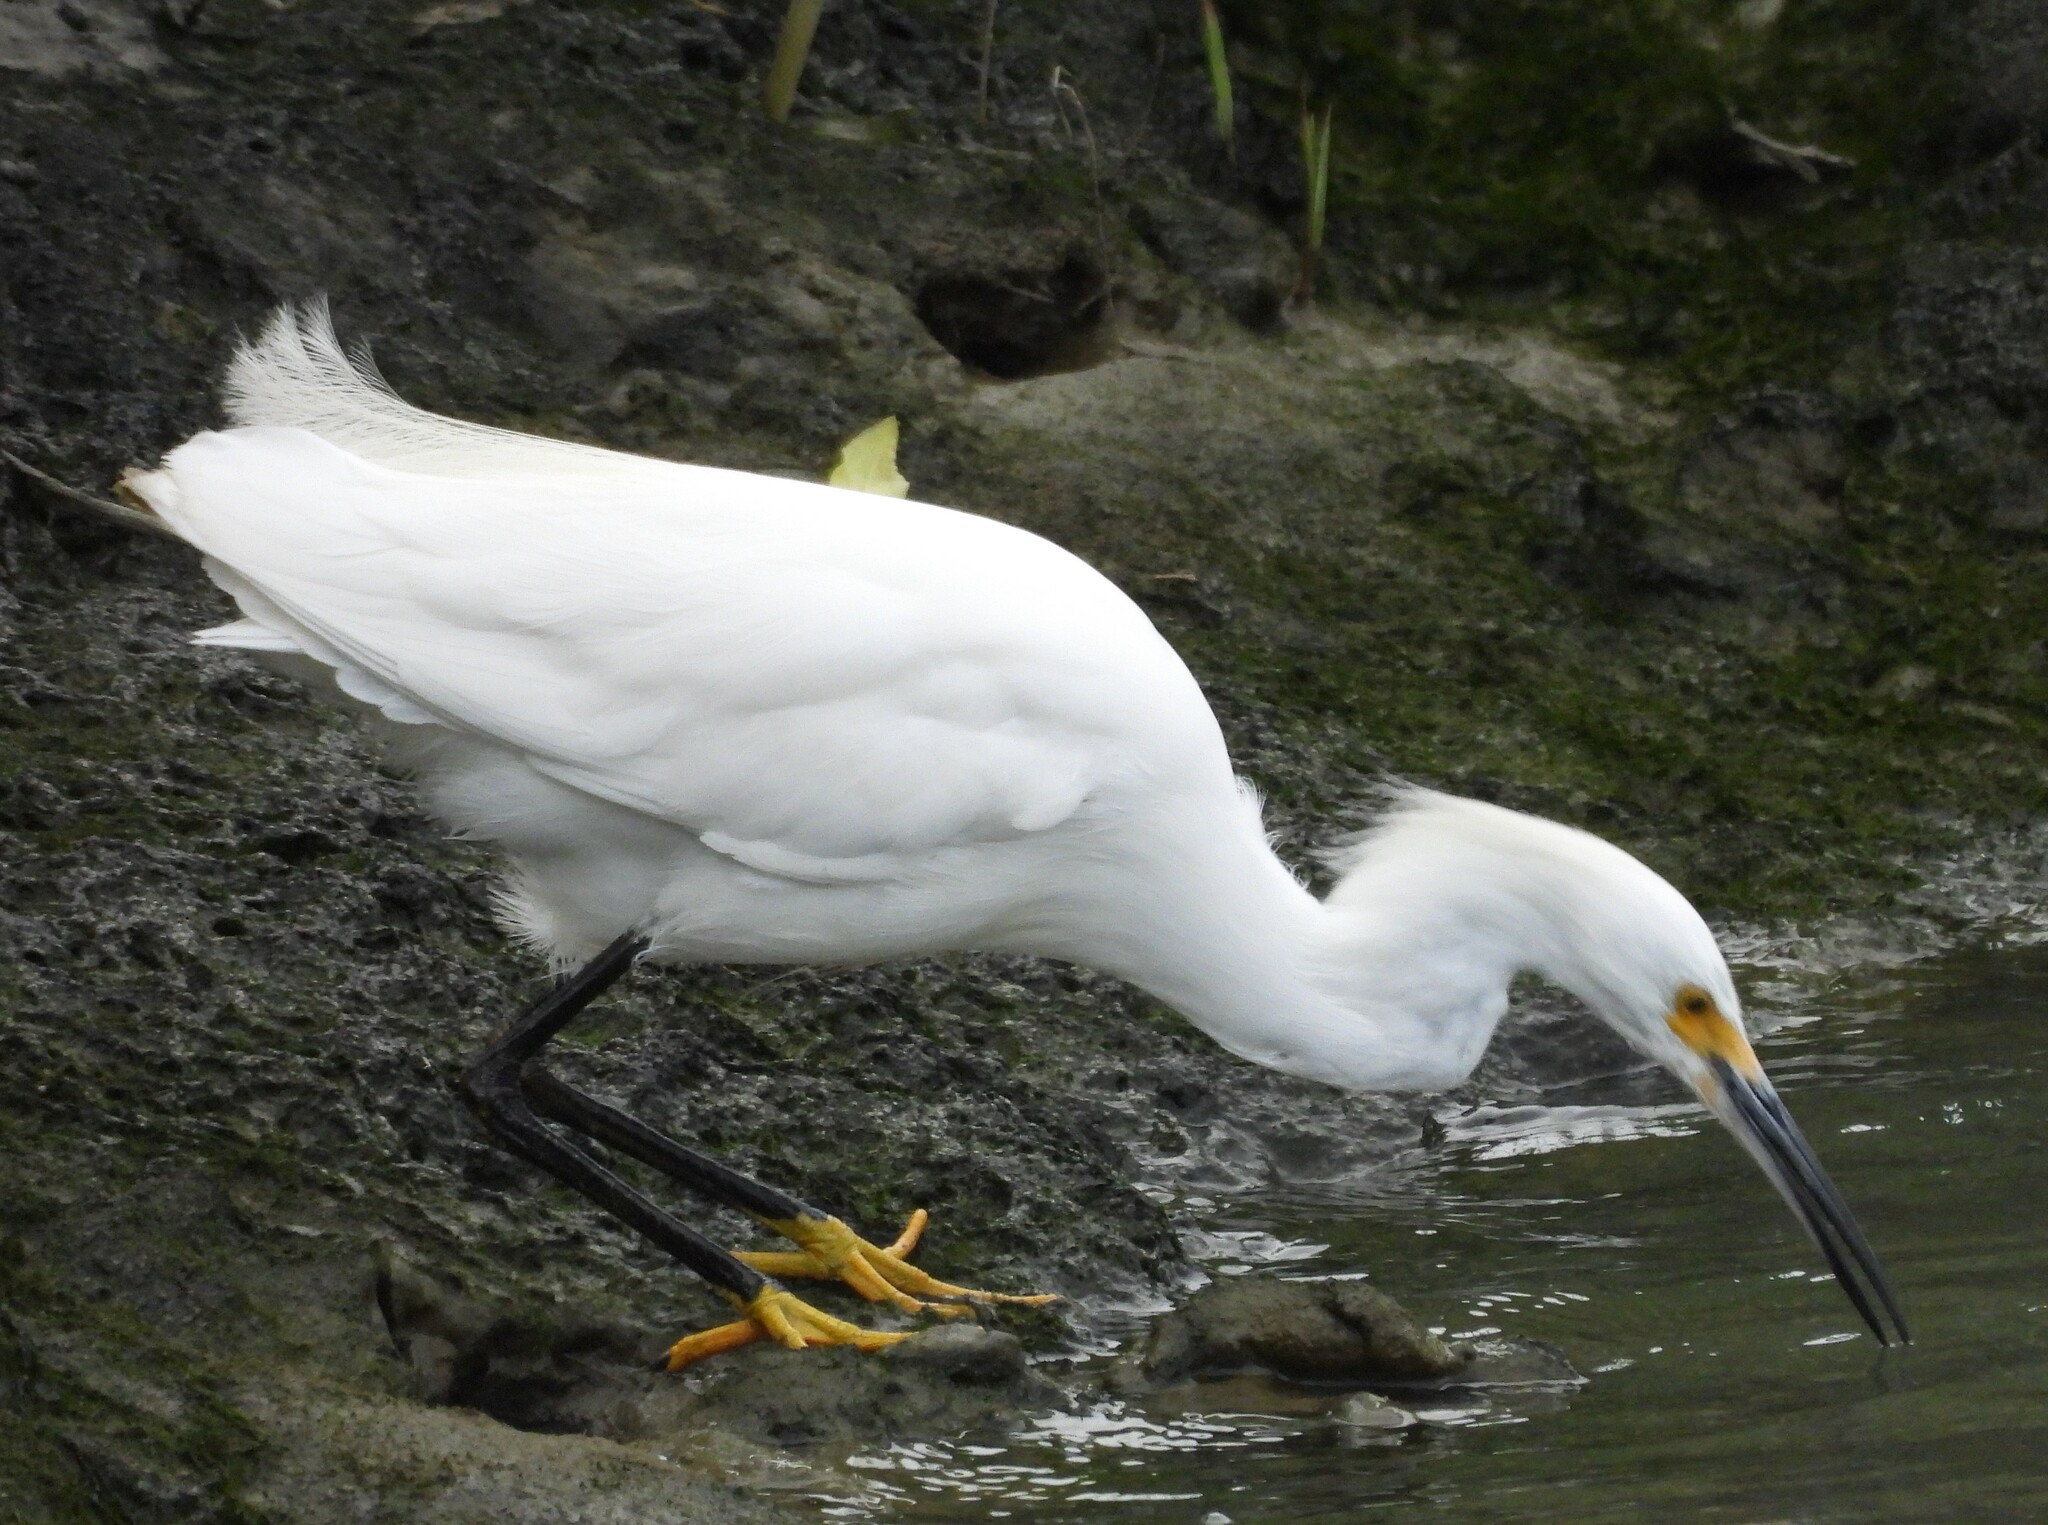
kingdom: Animalia
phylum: Chordata
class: Aves
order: Pelecaniformes
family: Ardeidae
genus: Egretta
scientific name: Egretta thula
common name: Snowy egret
